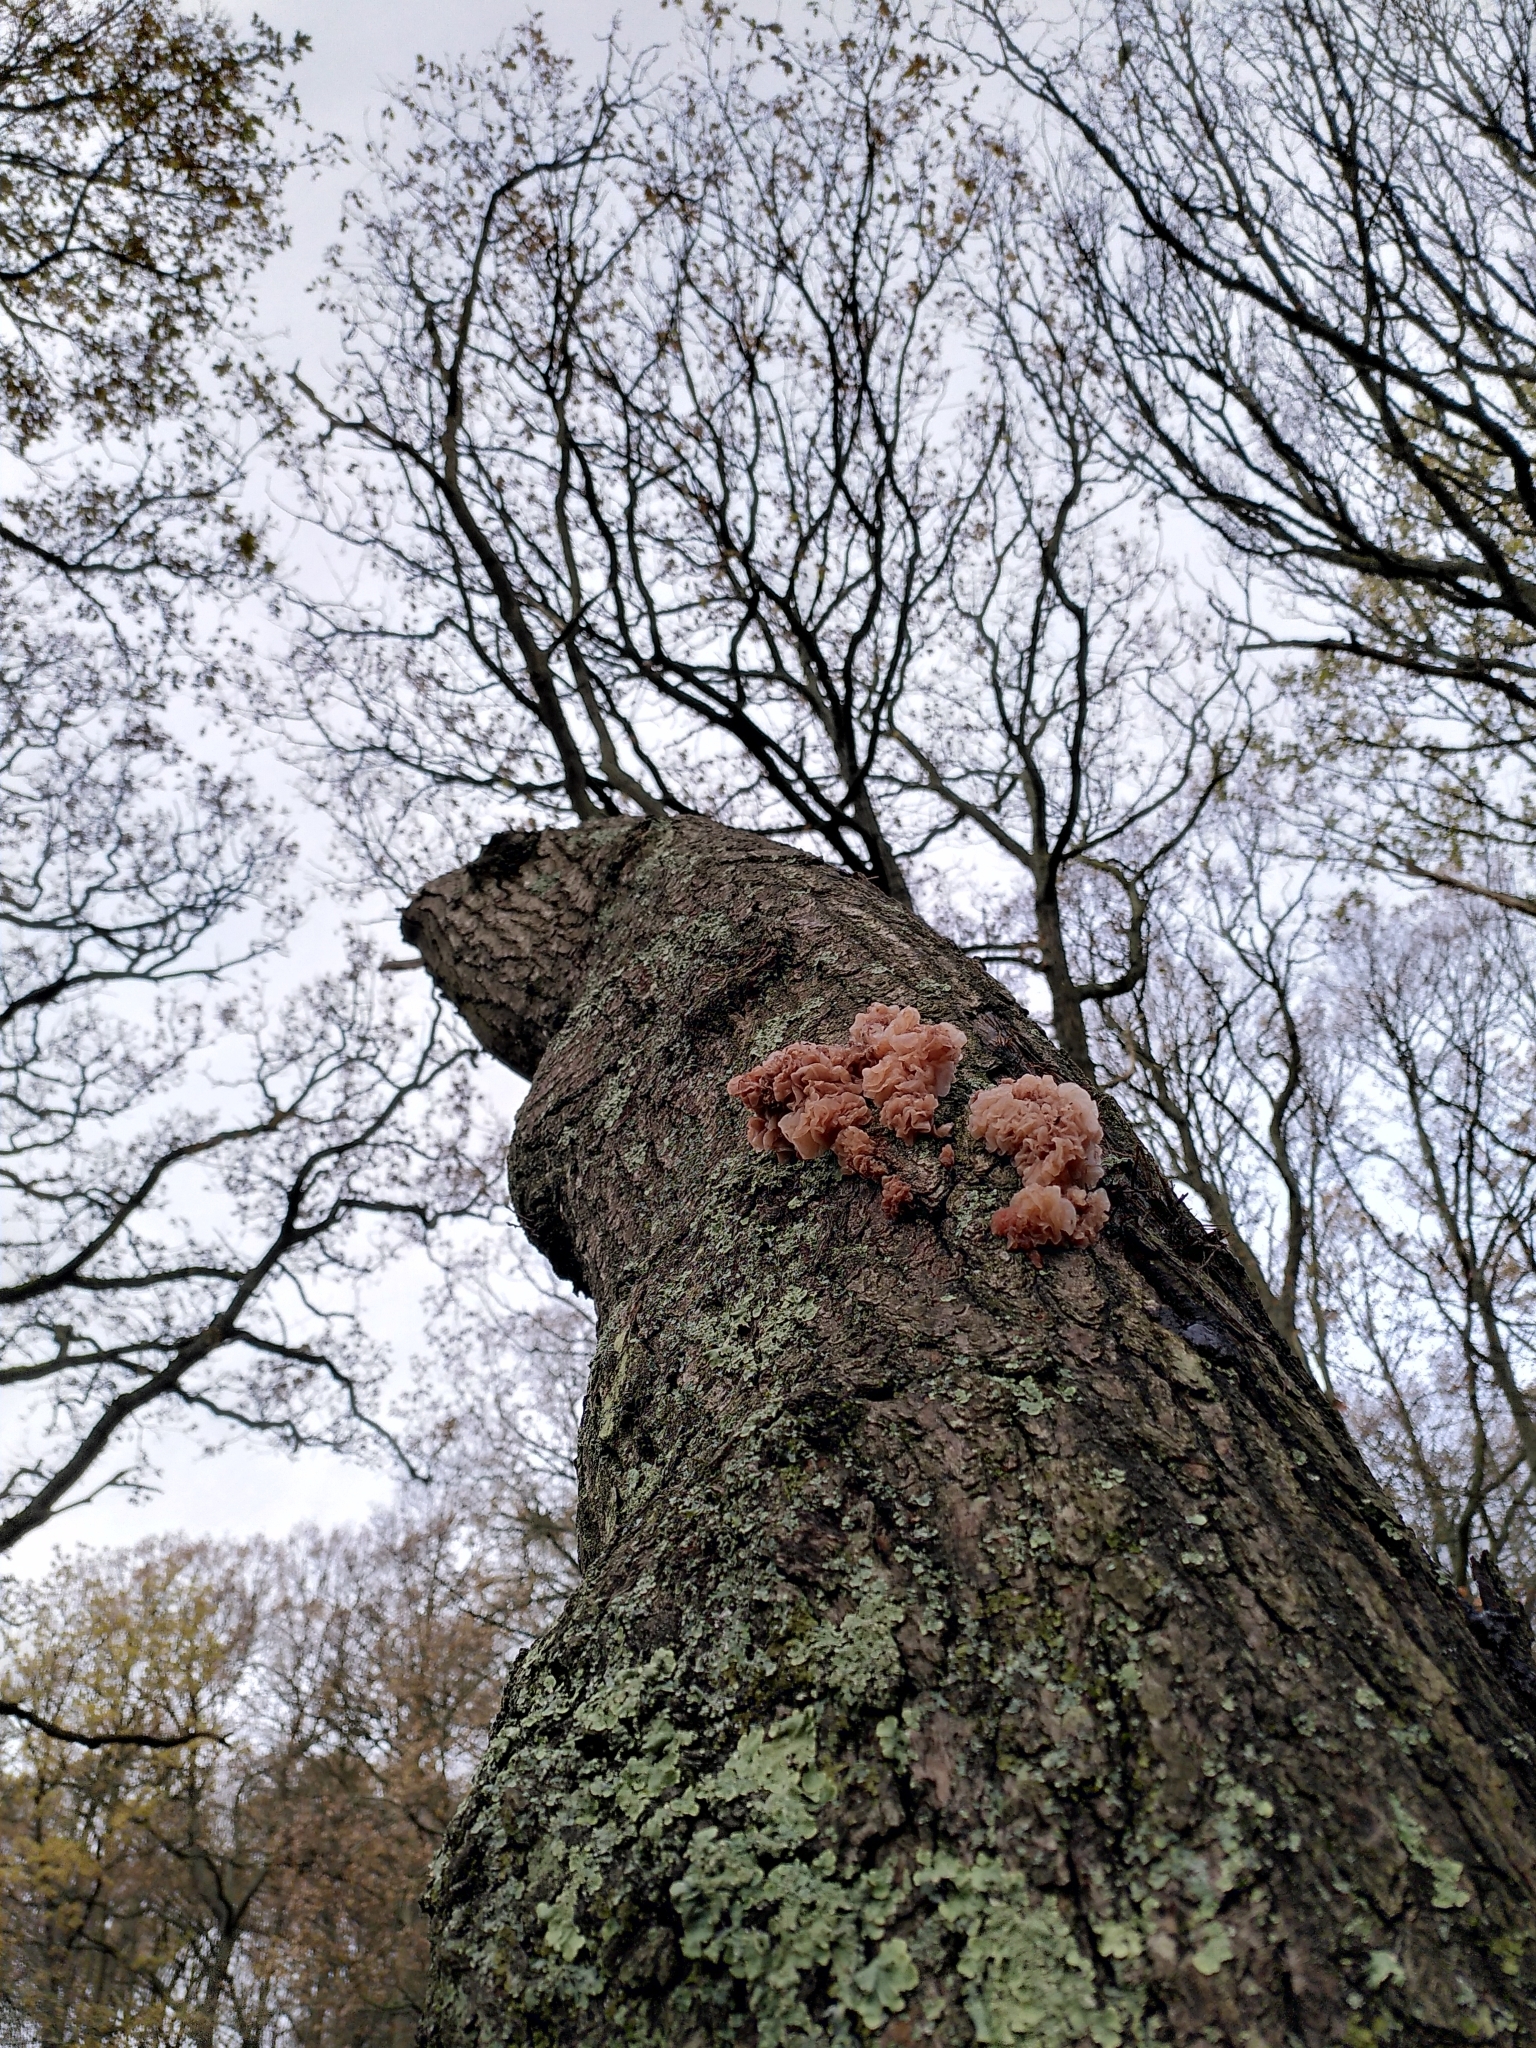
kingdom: Fungi
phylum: Basidiomycota
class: Tremellomycetes
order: Tremellales
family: Tremellaceae
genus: Phaeotremella
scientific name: Phaeotremella frondosa
